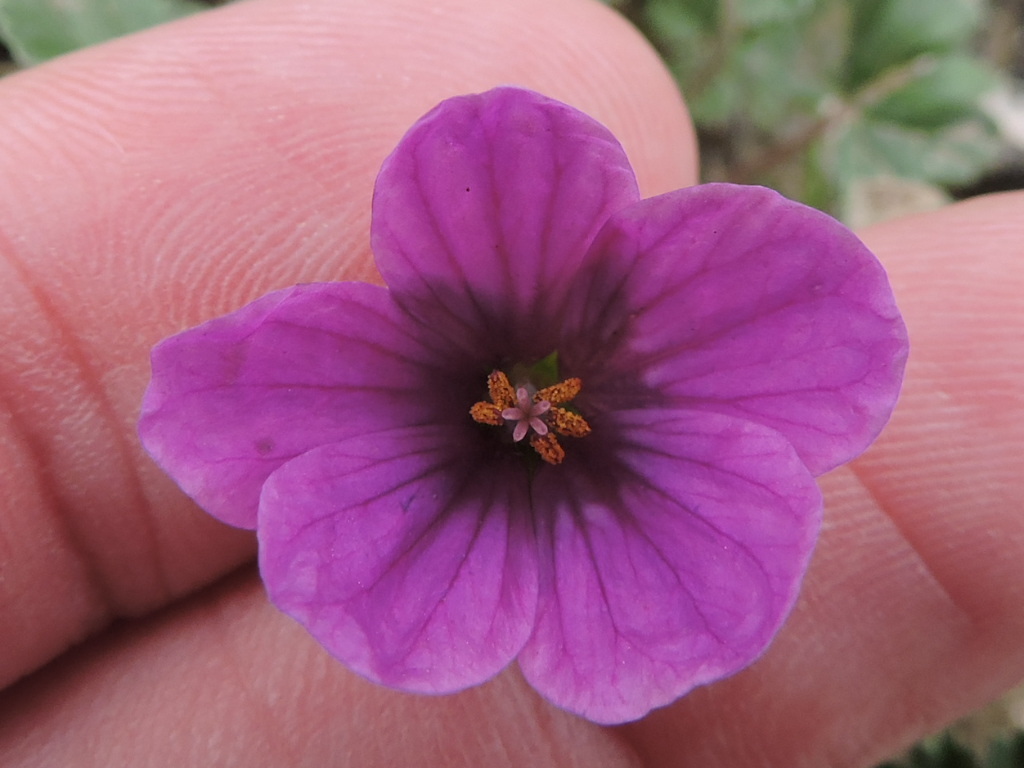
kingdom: Plantae
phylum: Tracheophyta
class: Magnoliopsida
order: Geraniales
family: Geraniaceae
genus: Erodium
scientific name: Erodium texanum
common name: Texas stork's-bill
